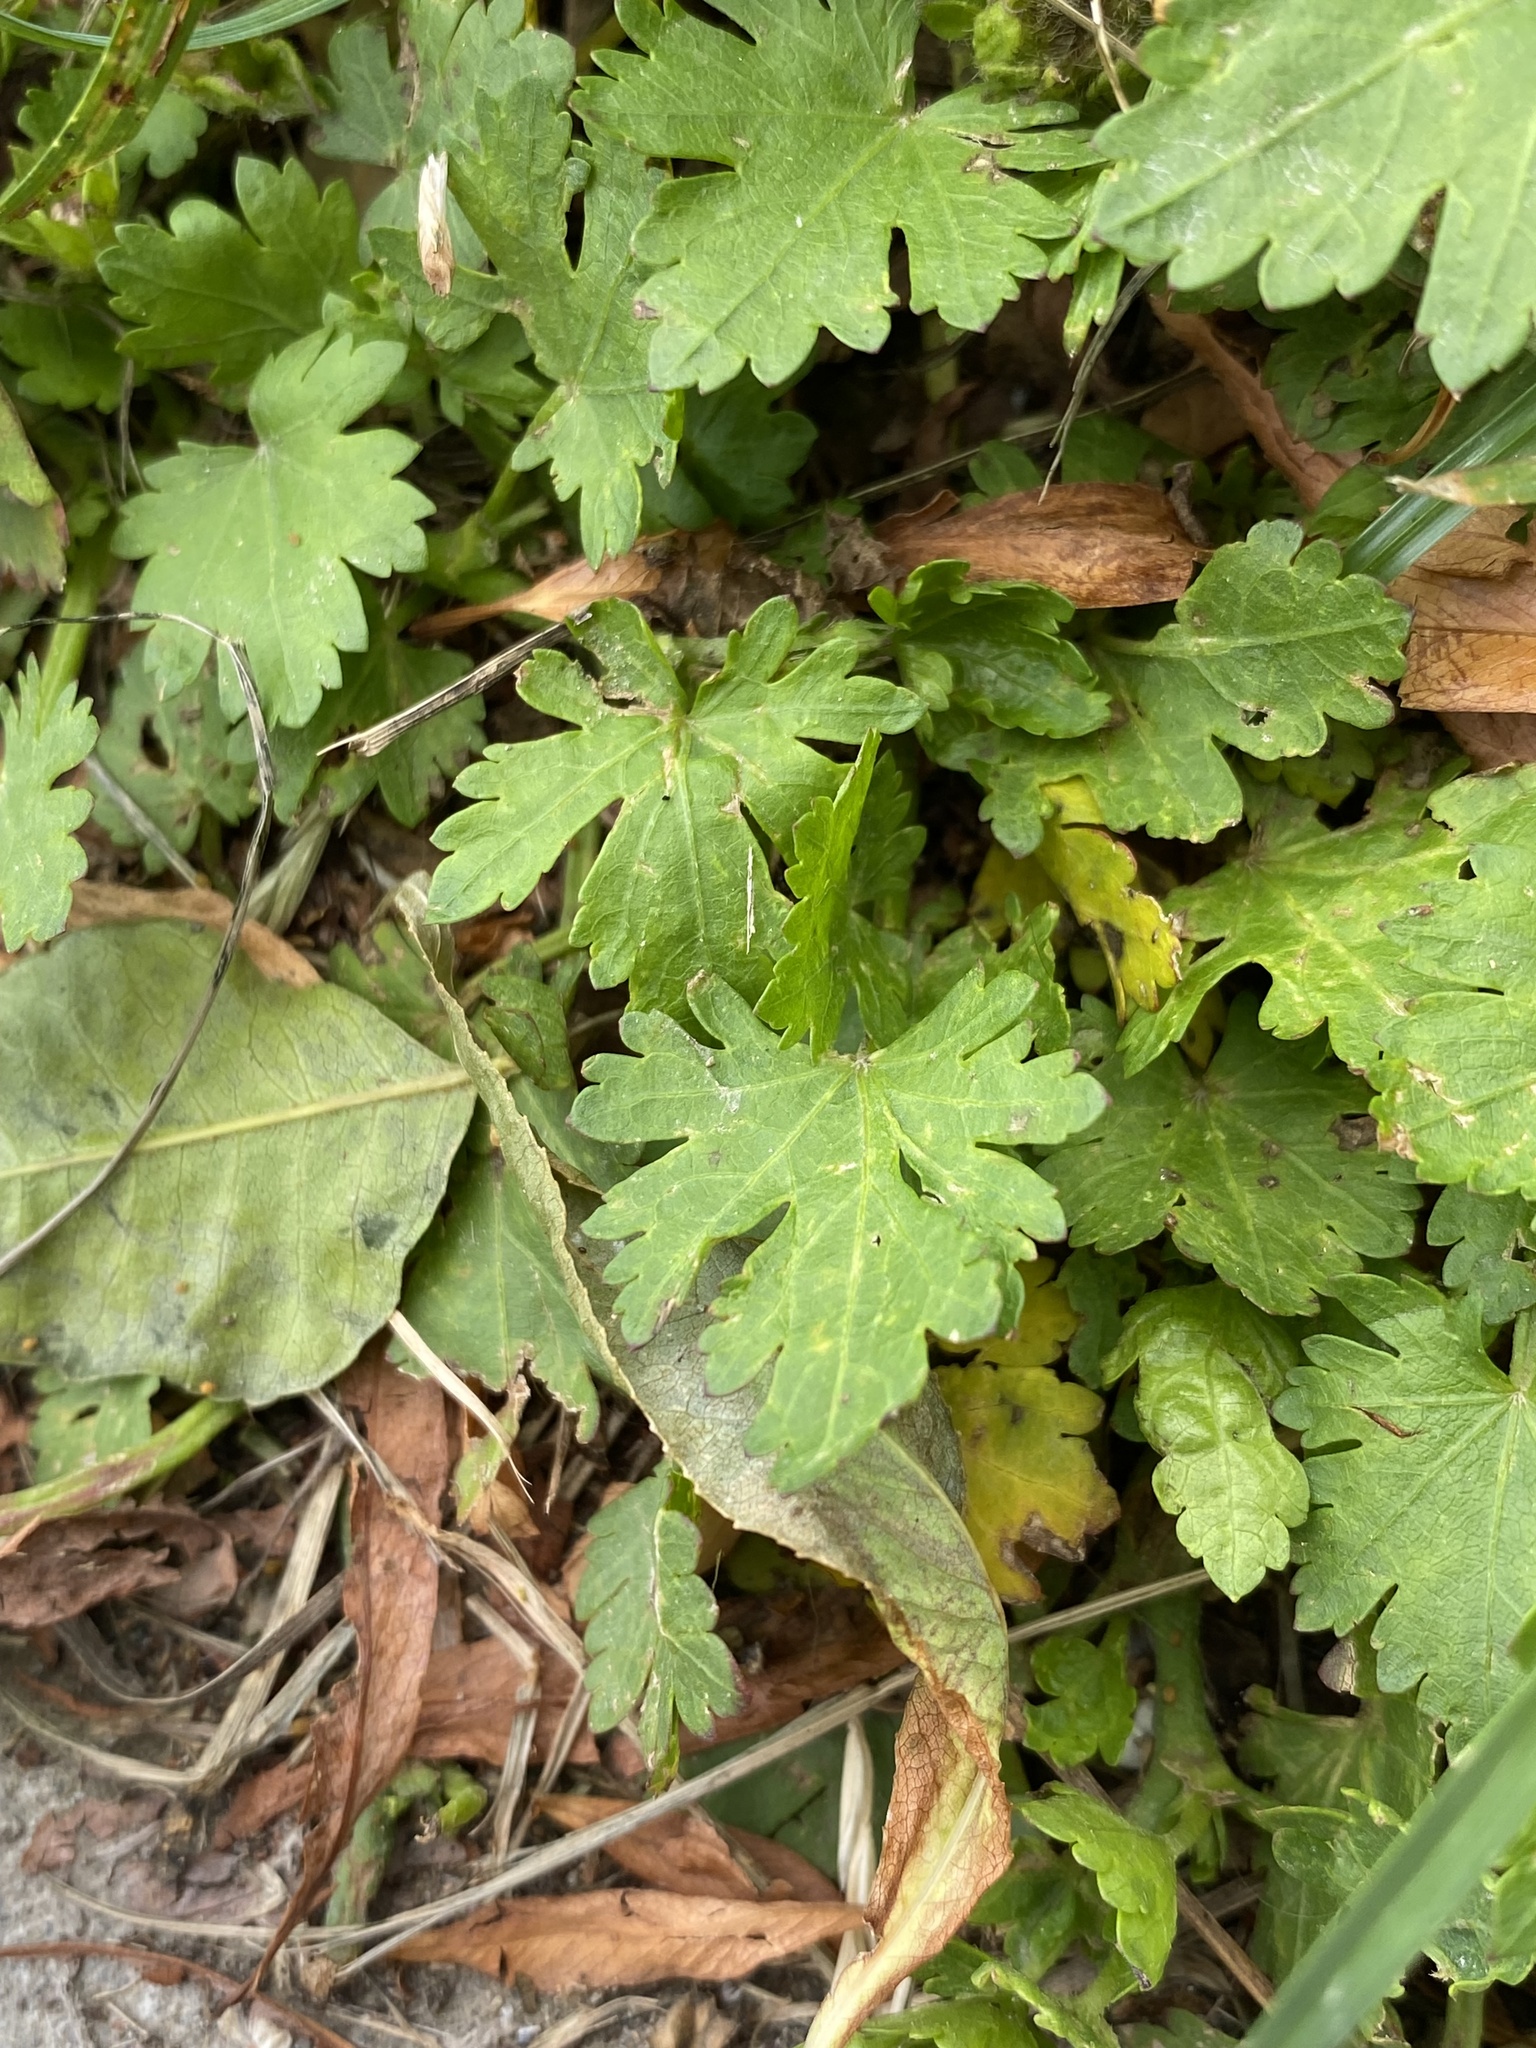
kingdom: Plantae
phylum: Tracheophyta
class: Magnoliopsida
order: Malvales
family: Malvaceae
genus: Modiola
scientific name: Modiola caroliniana
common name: Carolina bristlemallow
